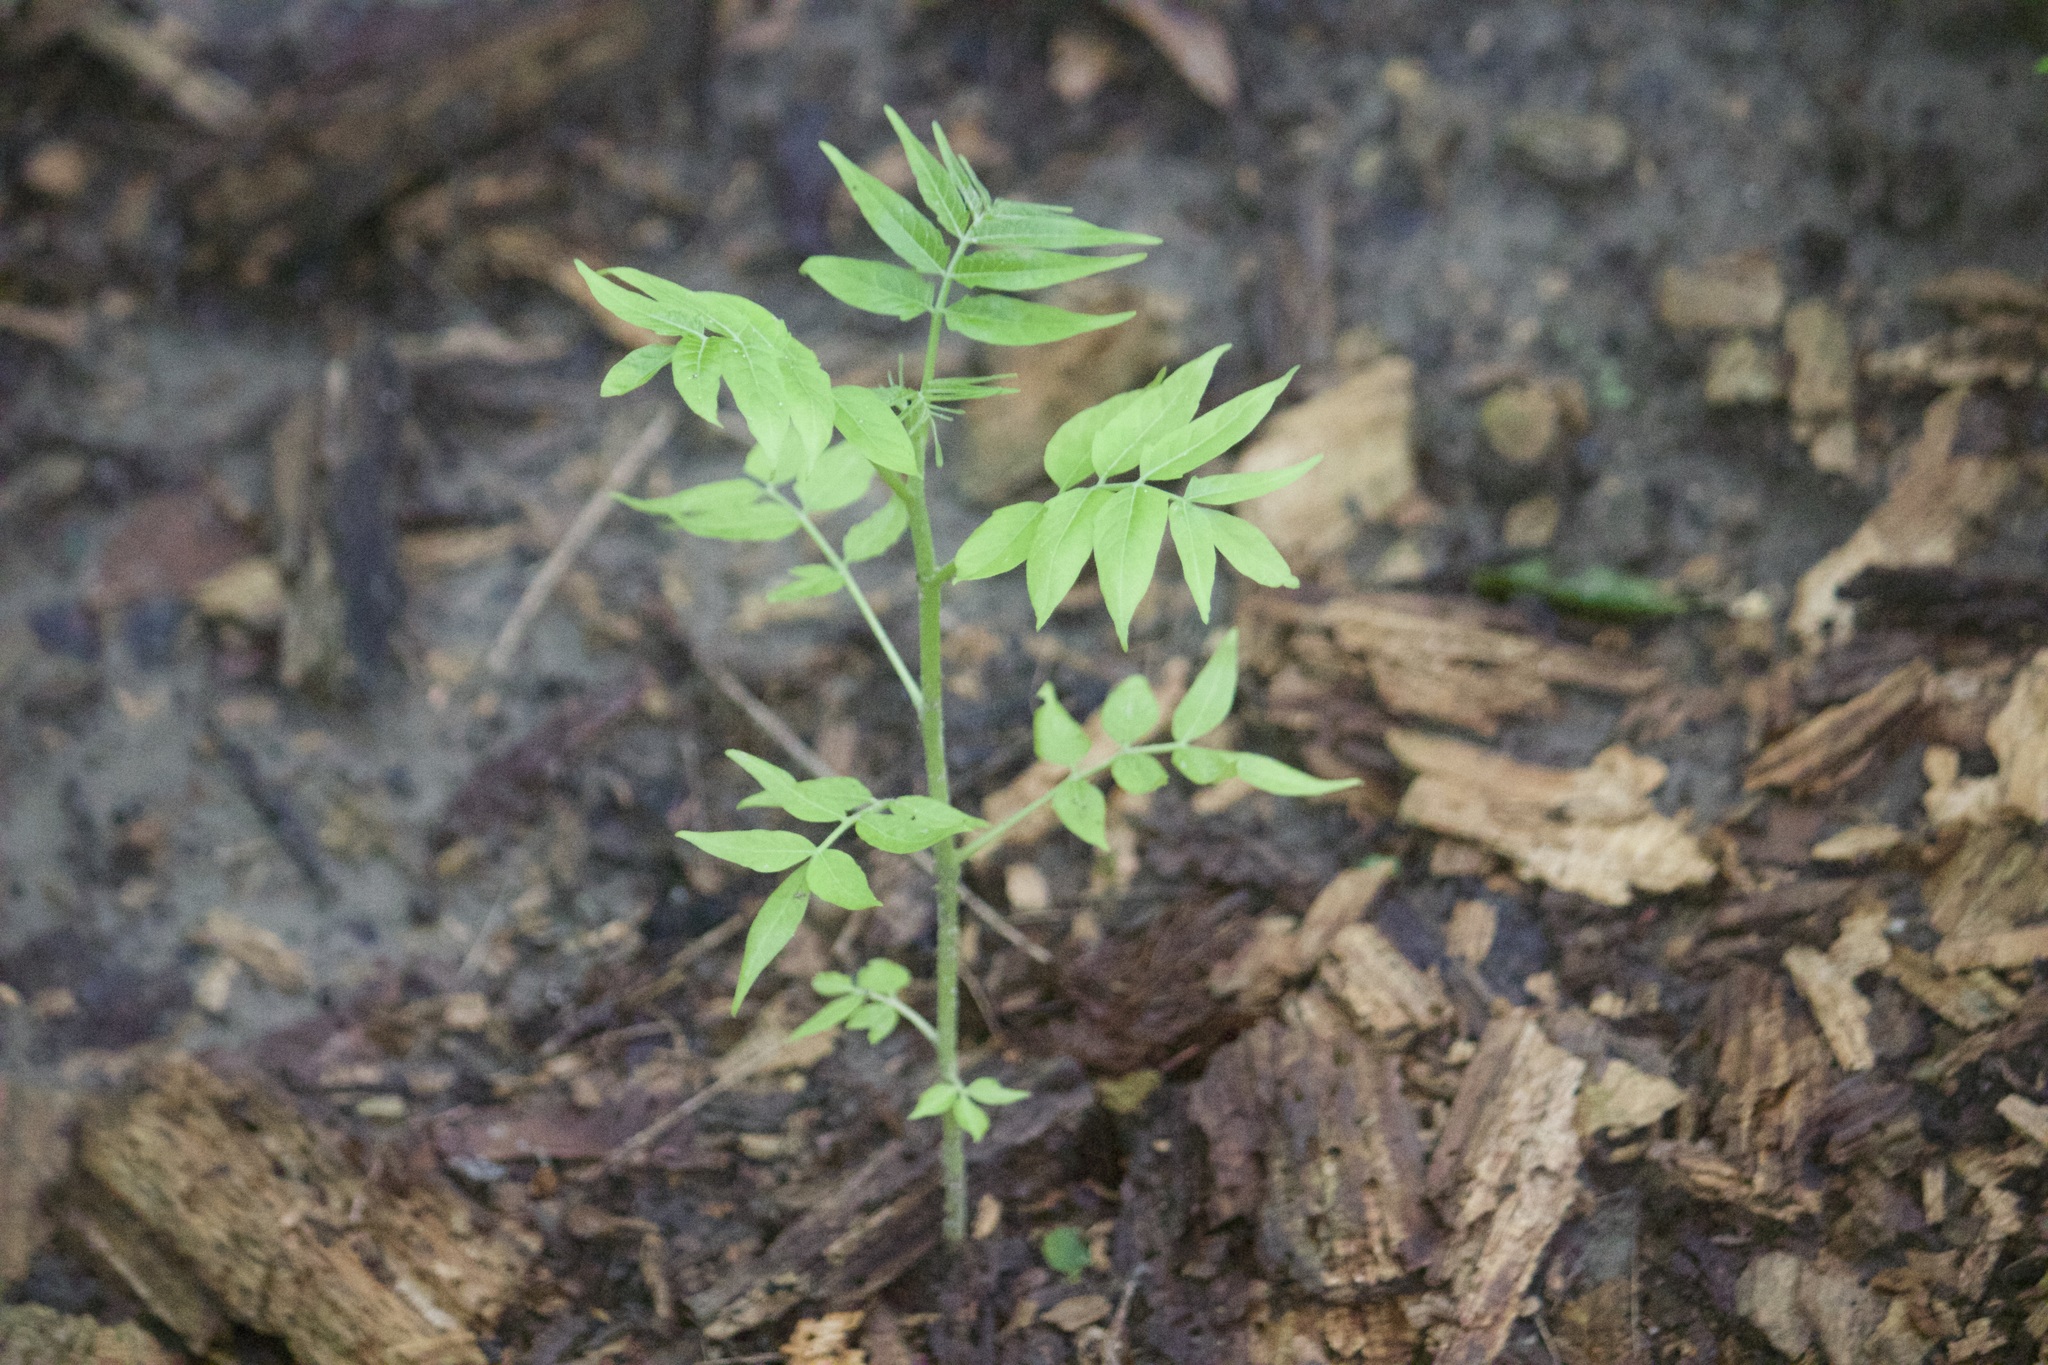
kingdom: Plantae
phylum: Tracheophyta
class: Magnoliopsida
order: Sapindales
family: Simaroubaceae
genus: Ailanthus
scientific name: Ailanthus altissima
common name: Tree-of-heaven
